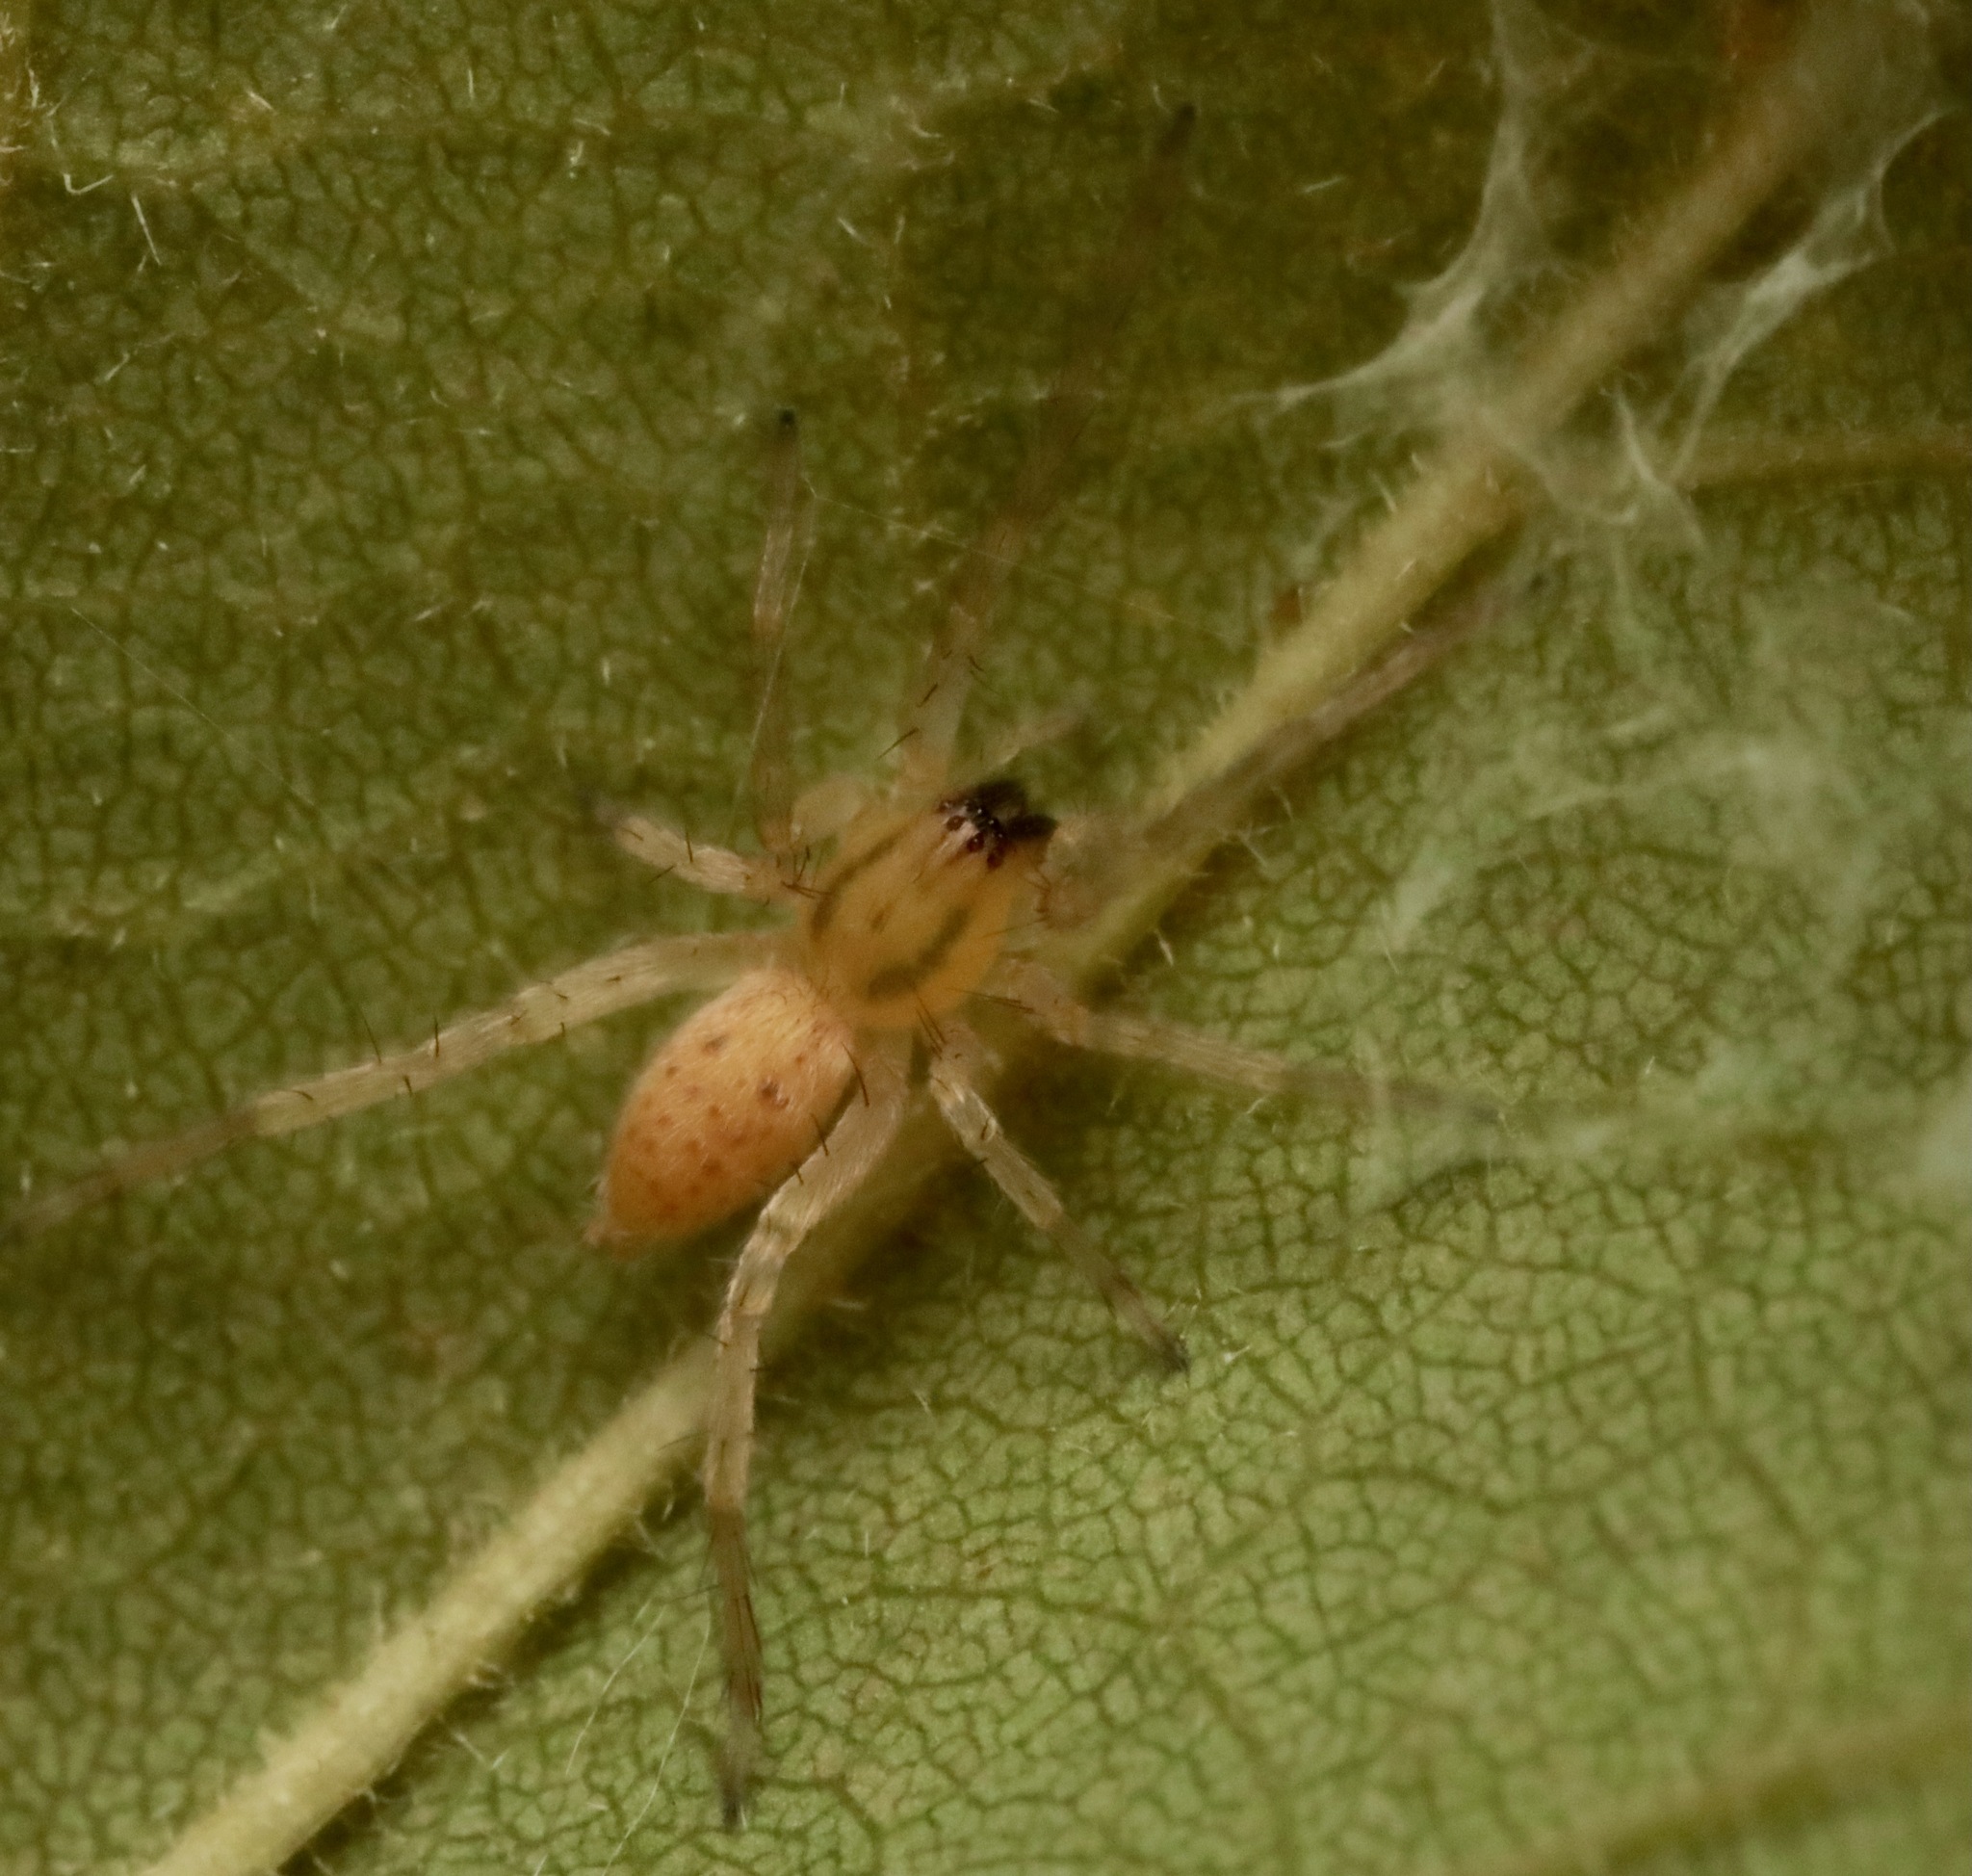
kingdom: Animalia
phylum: Arthropoda
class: Arachnida
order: Araneae
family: Anyphaenidae
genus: Hibana
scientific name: Hibana gracilis
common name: Garden ghost spider
